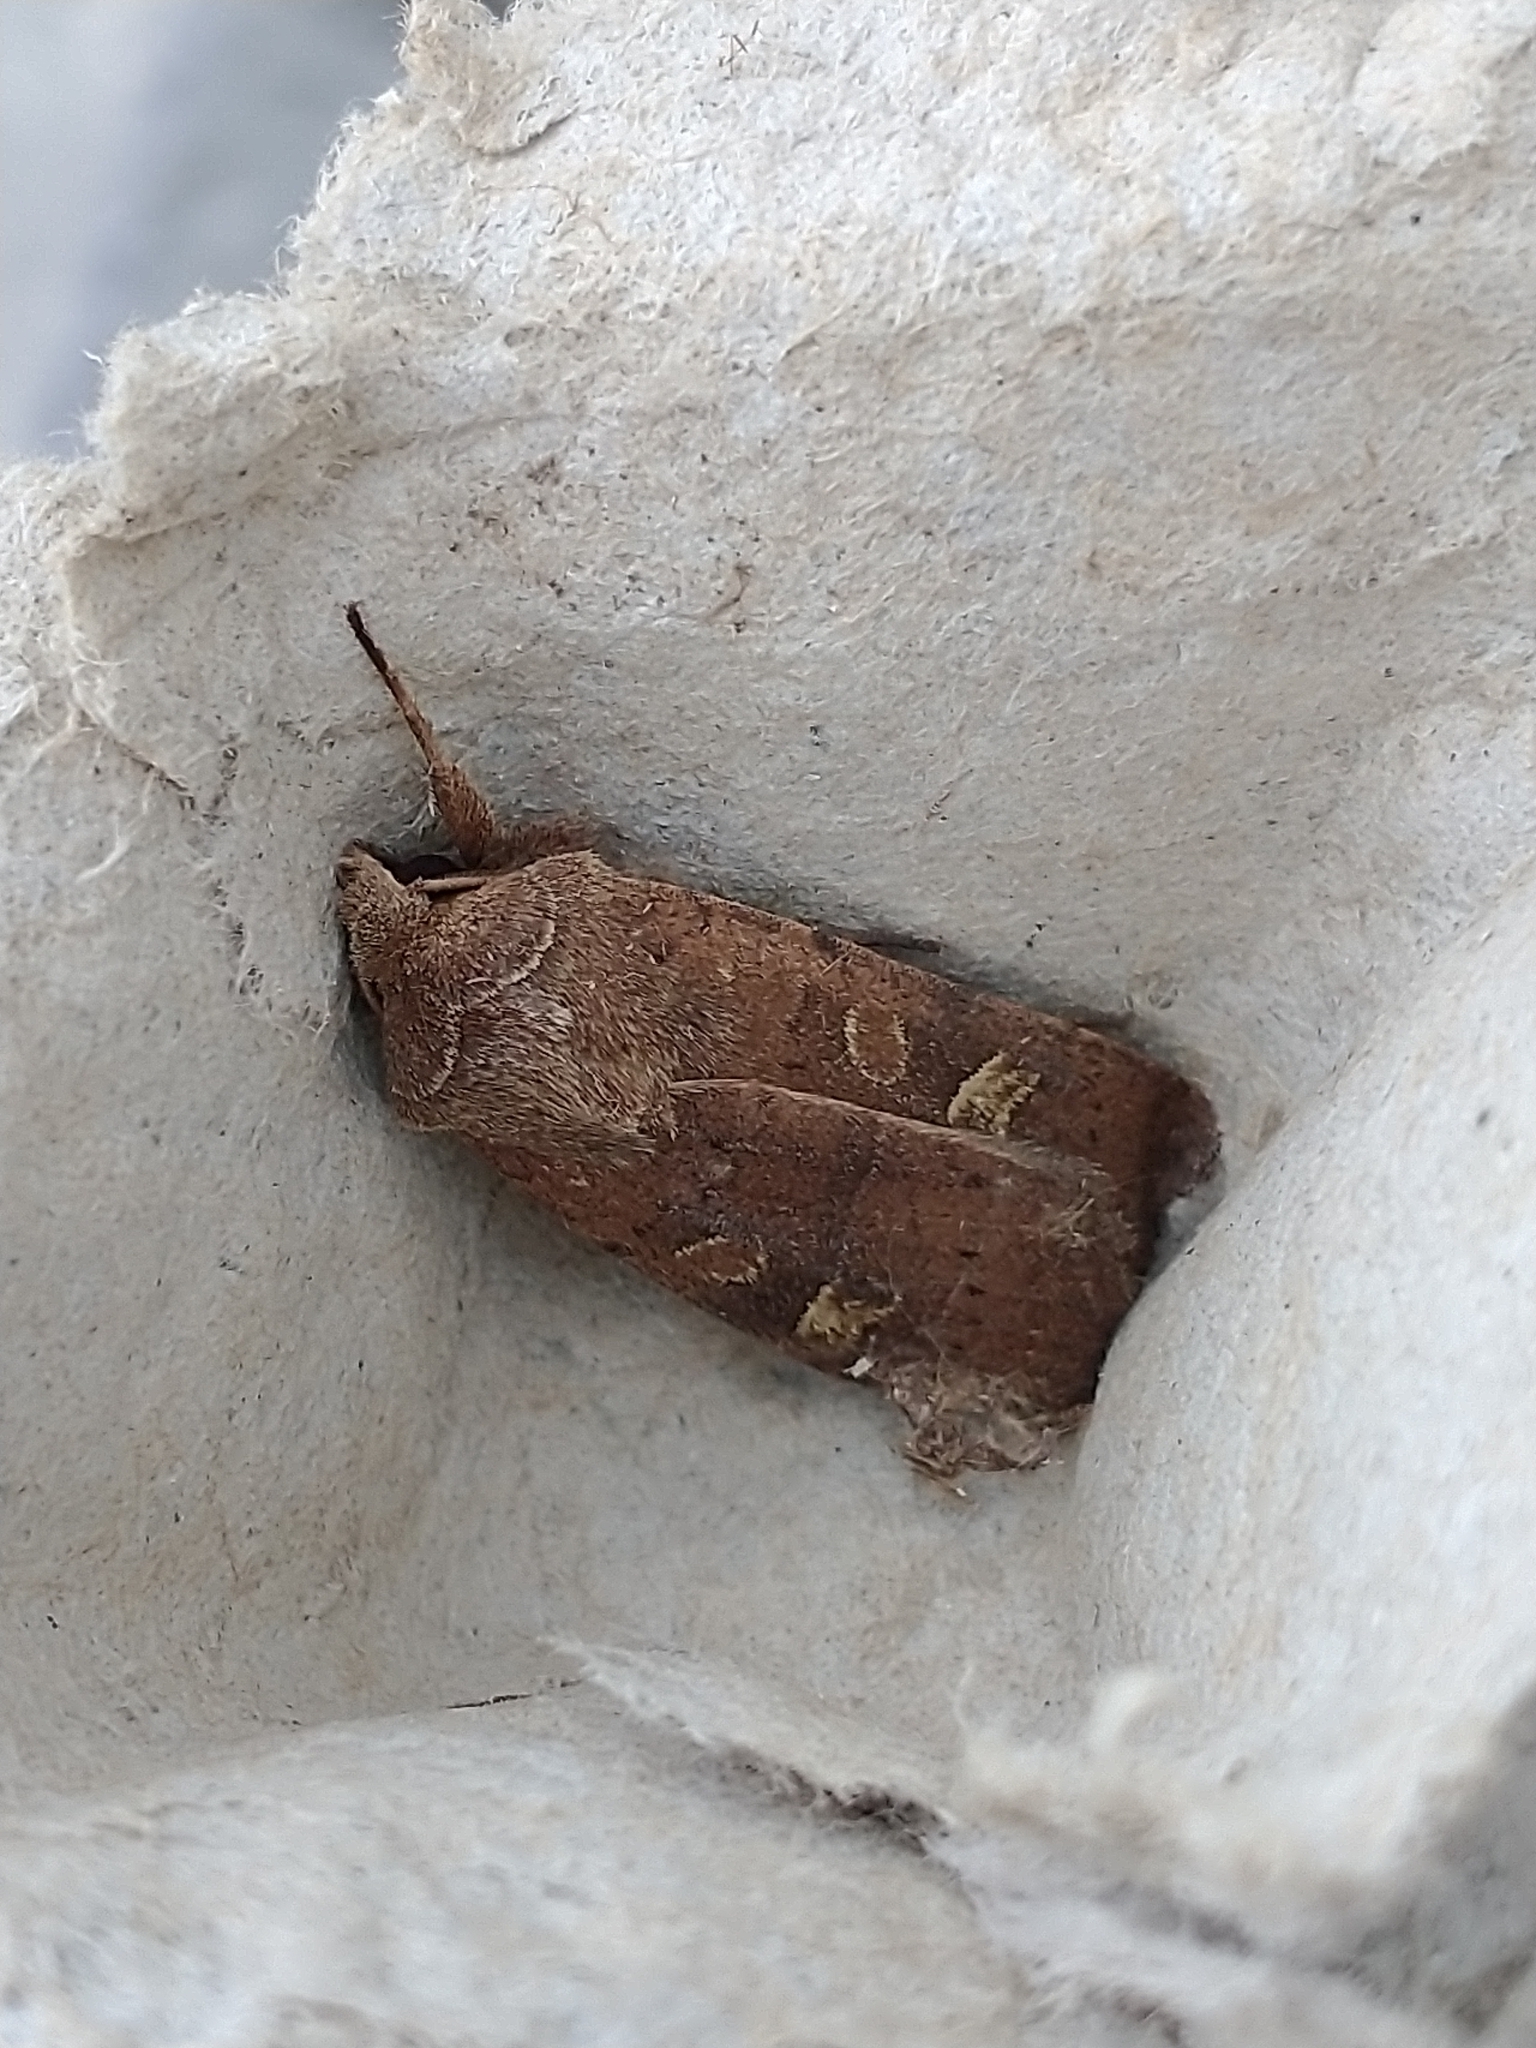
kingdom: Animalia
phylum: Arthropoda
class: Insecta
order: Lepidoptera
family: Noctuidae
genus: Xestia
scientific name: Xestia xanthographa
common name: Square-spot rustic
